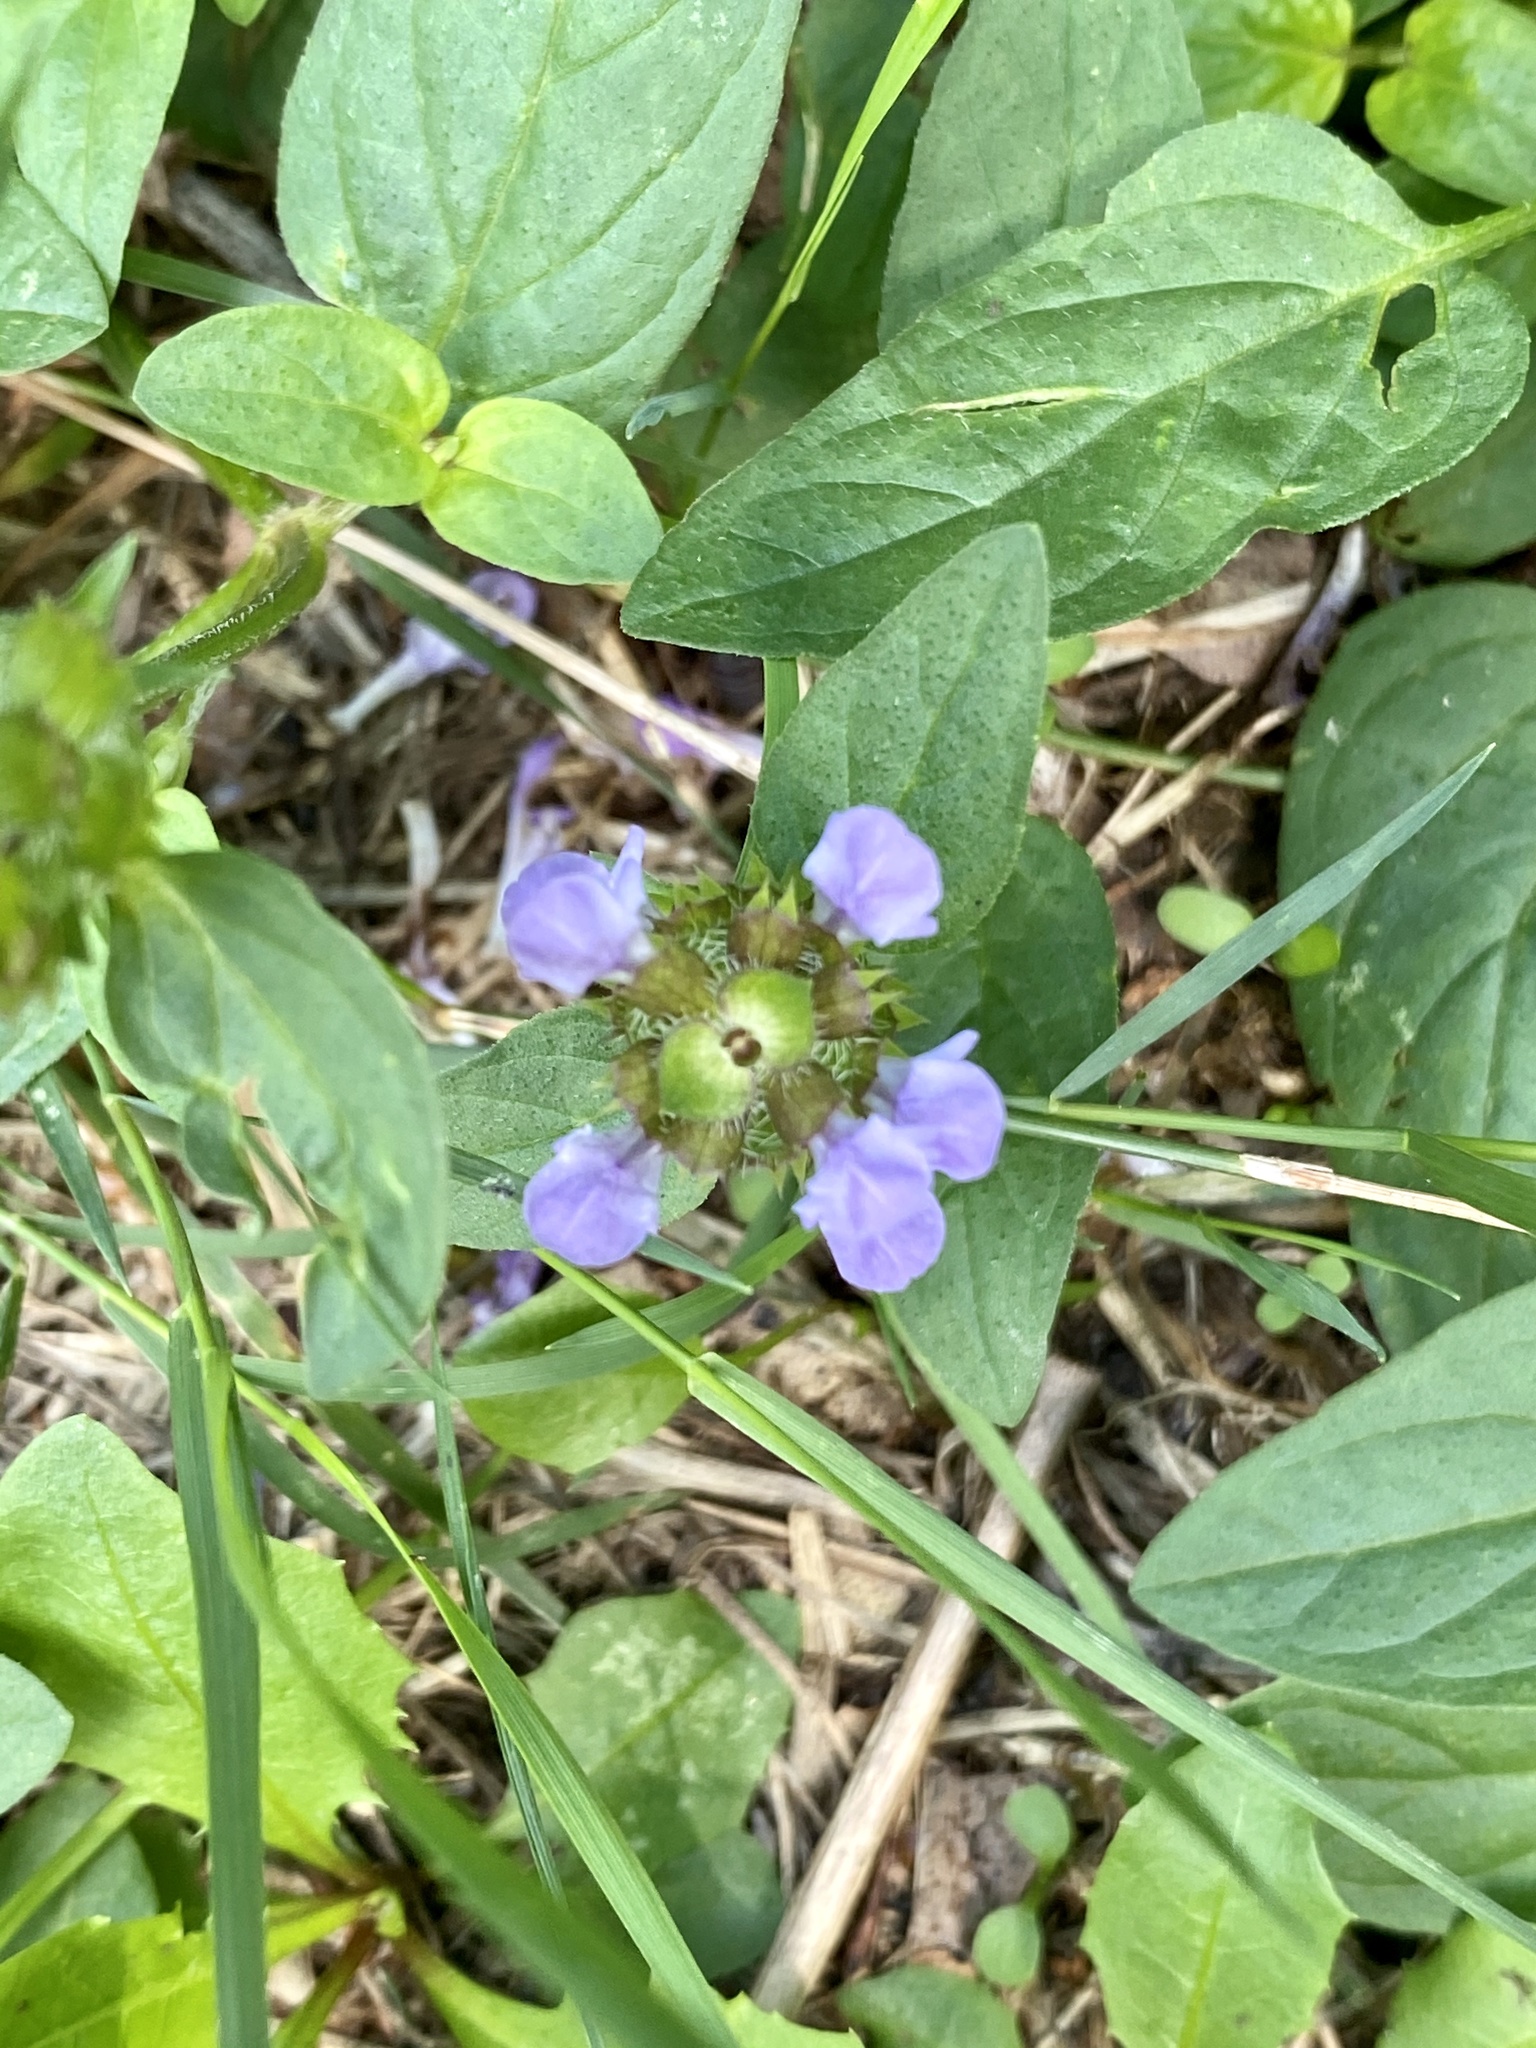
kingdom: Plantae
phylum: Tracheophyta
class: Magnoliopsida
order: Lamiales
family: Lamiaceae
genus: Prunella
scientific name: Prunella vulgaris
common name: Heal-all
